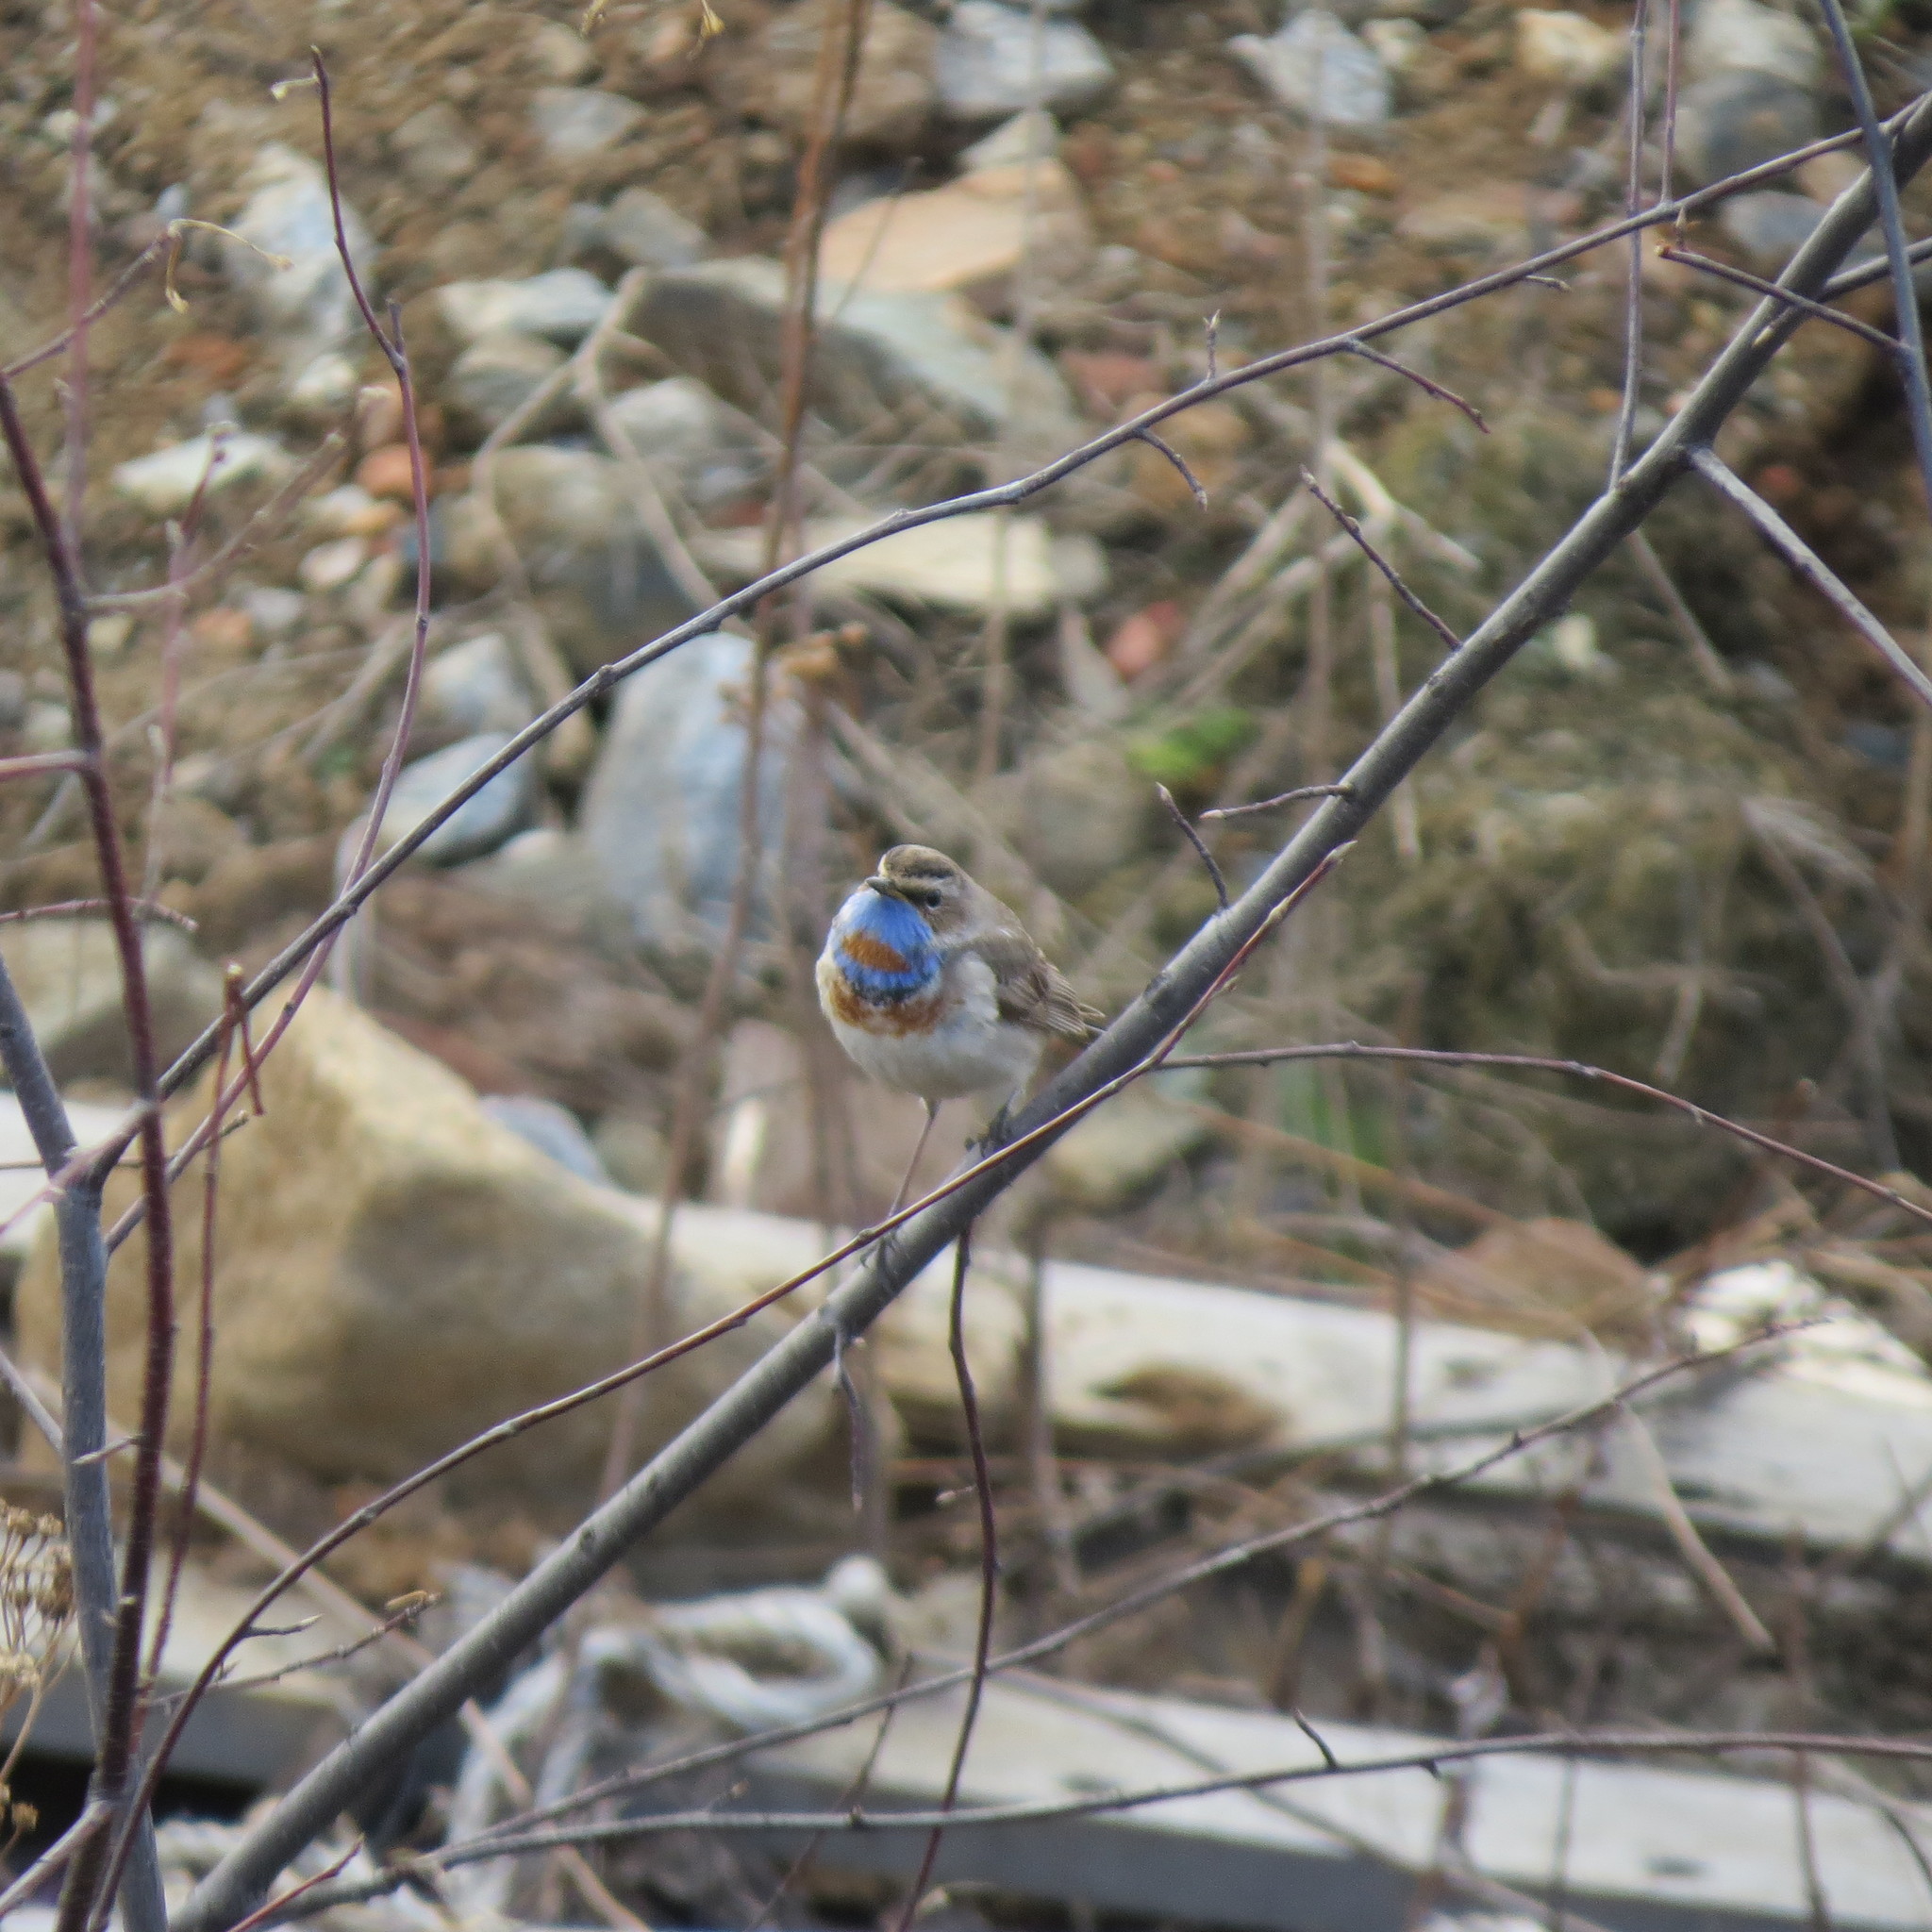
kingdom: Animalia
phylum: Chordata
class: Aves
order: Passeriformes
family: Muscicapidae
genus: Luscinia
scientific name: Luscinia svecica
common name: Bluethroat
